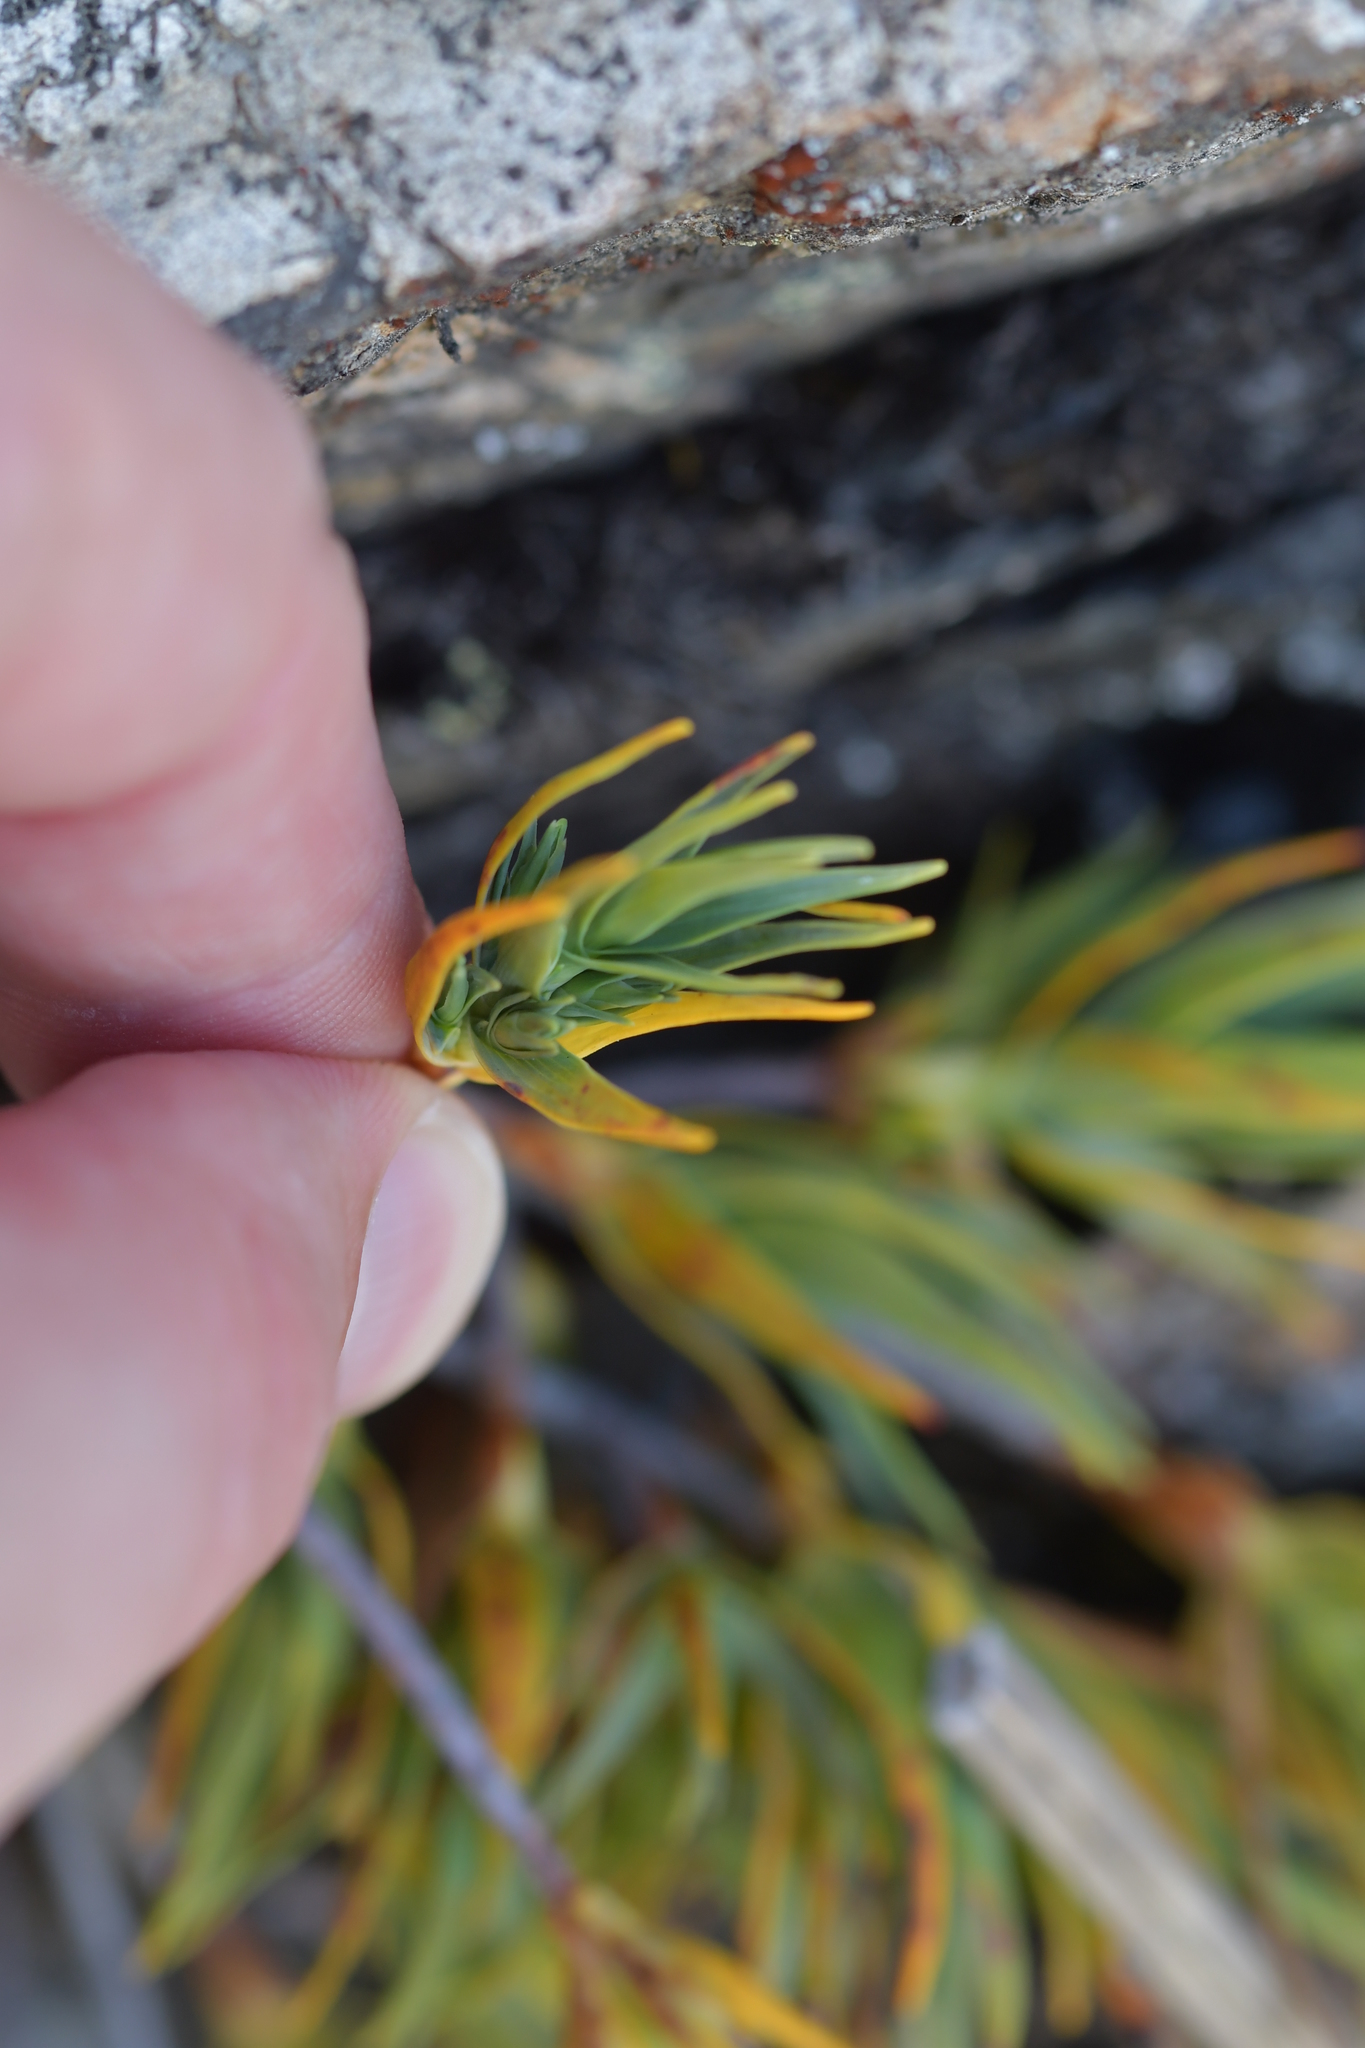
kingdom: Plantae
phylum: Tracheophyta
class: Magnoliopsida
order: Ericales
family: Ericaceae
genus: Dracophyllum
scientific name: Dracophyllum kirkii
